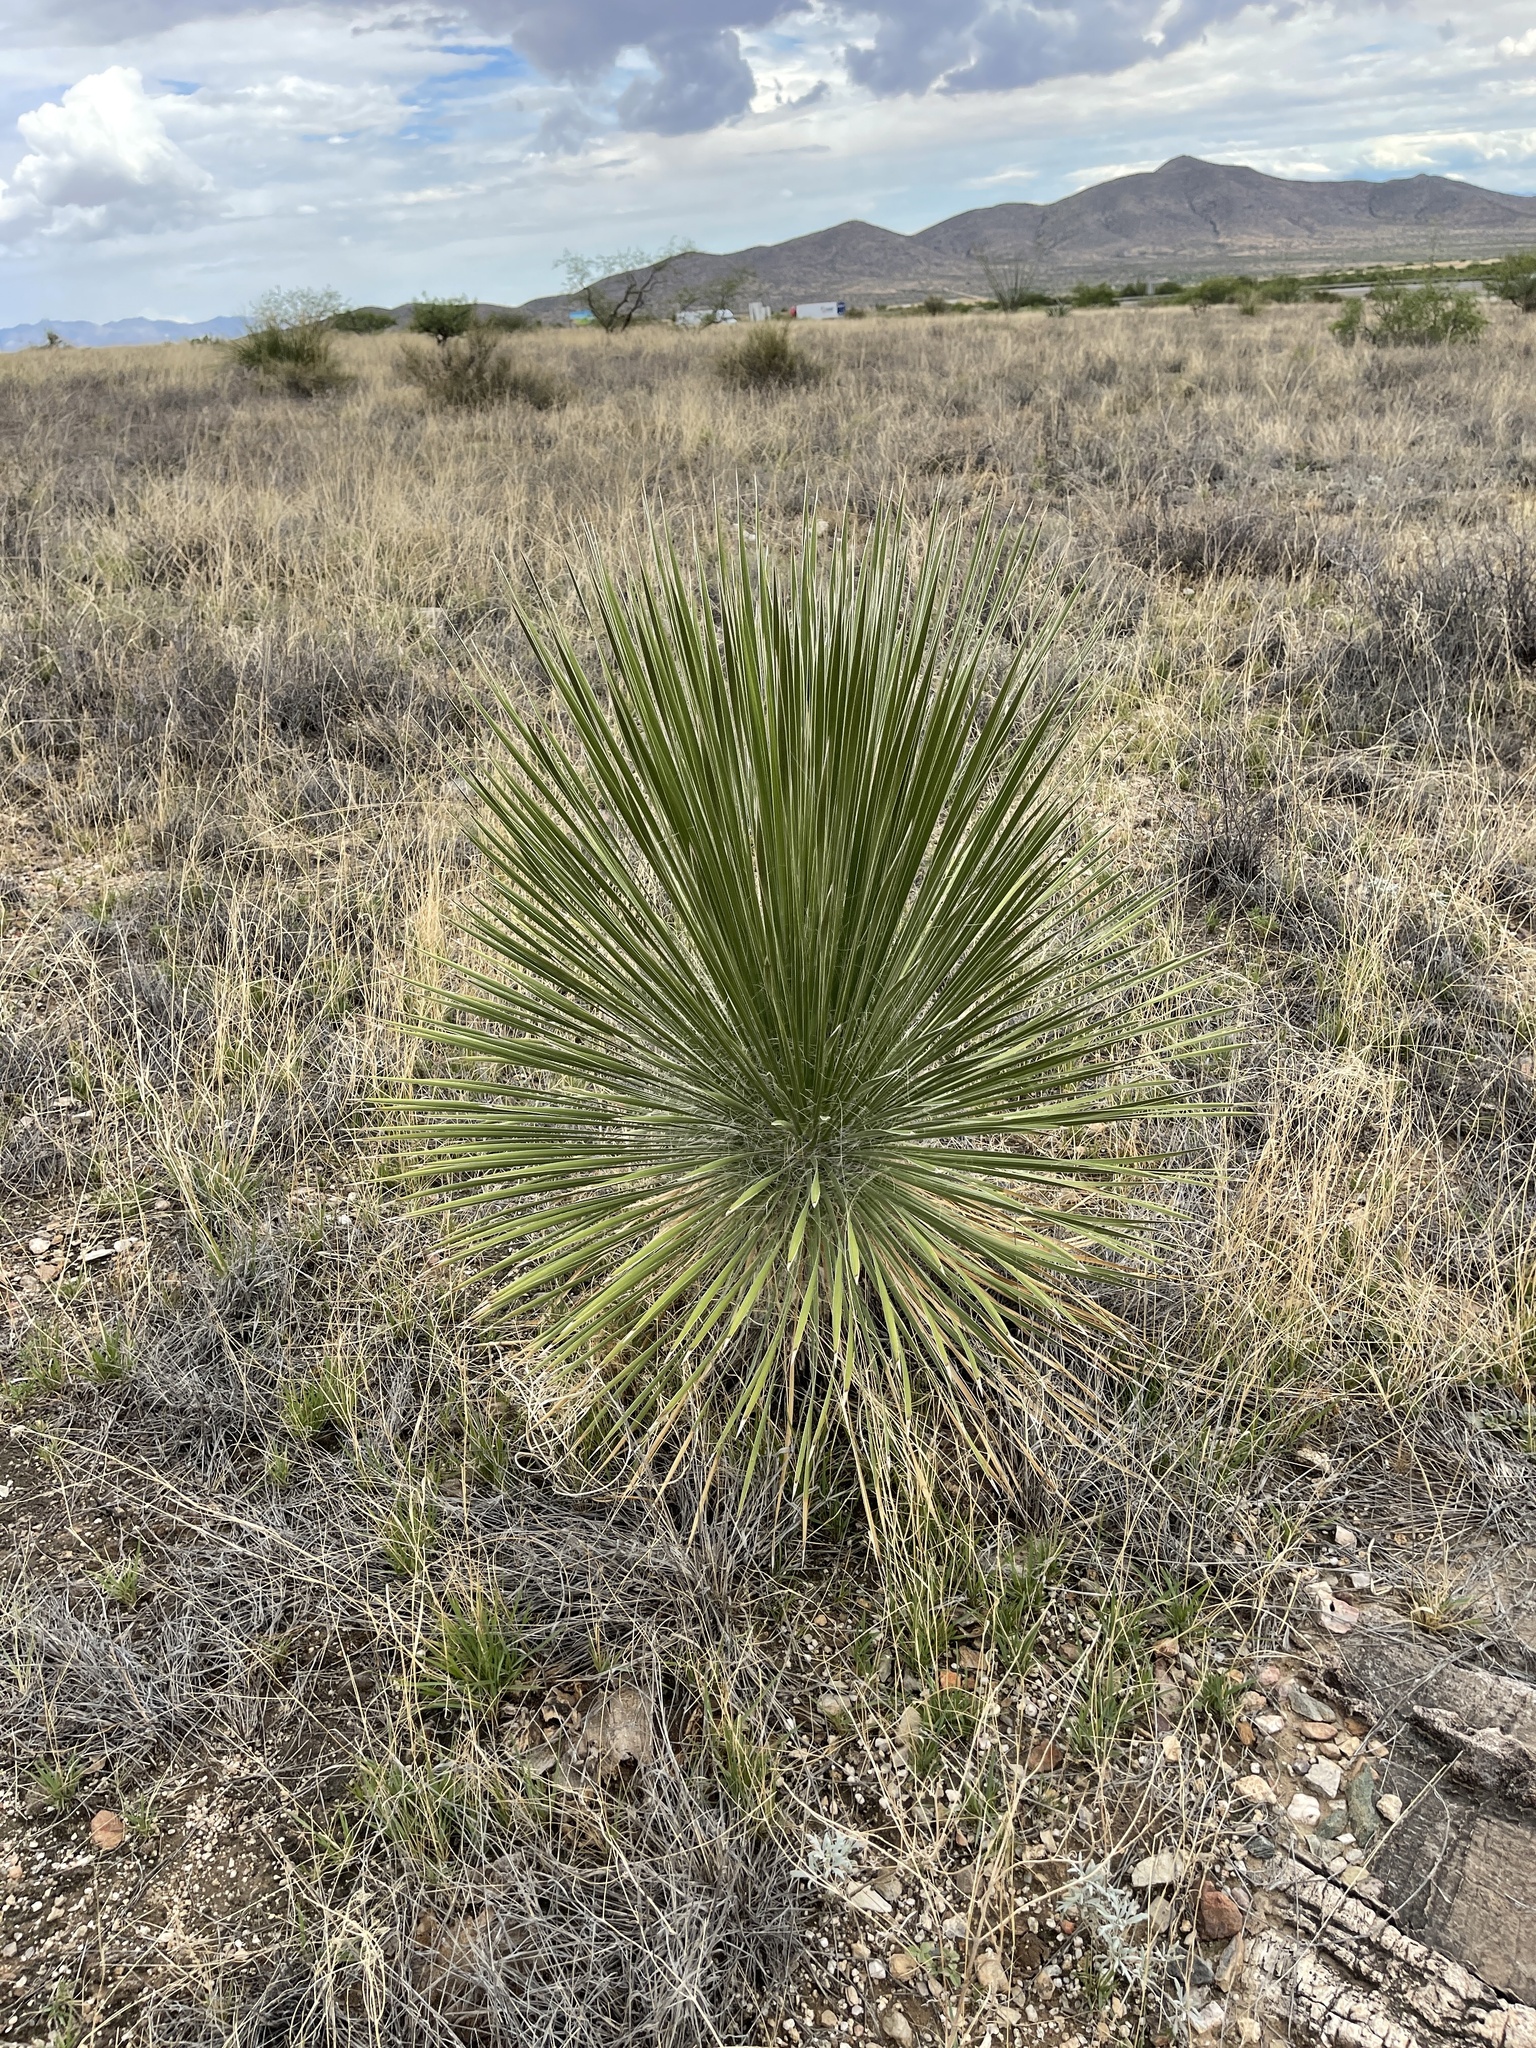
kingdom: Plantae
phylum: Tracheophyta
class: Liliopsida
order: Asparagales
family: Asparagaceae
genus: Yucca
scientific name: Yucca elata
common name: Palmella
